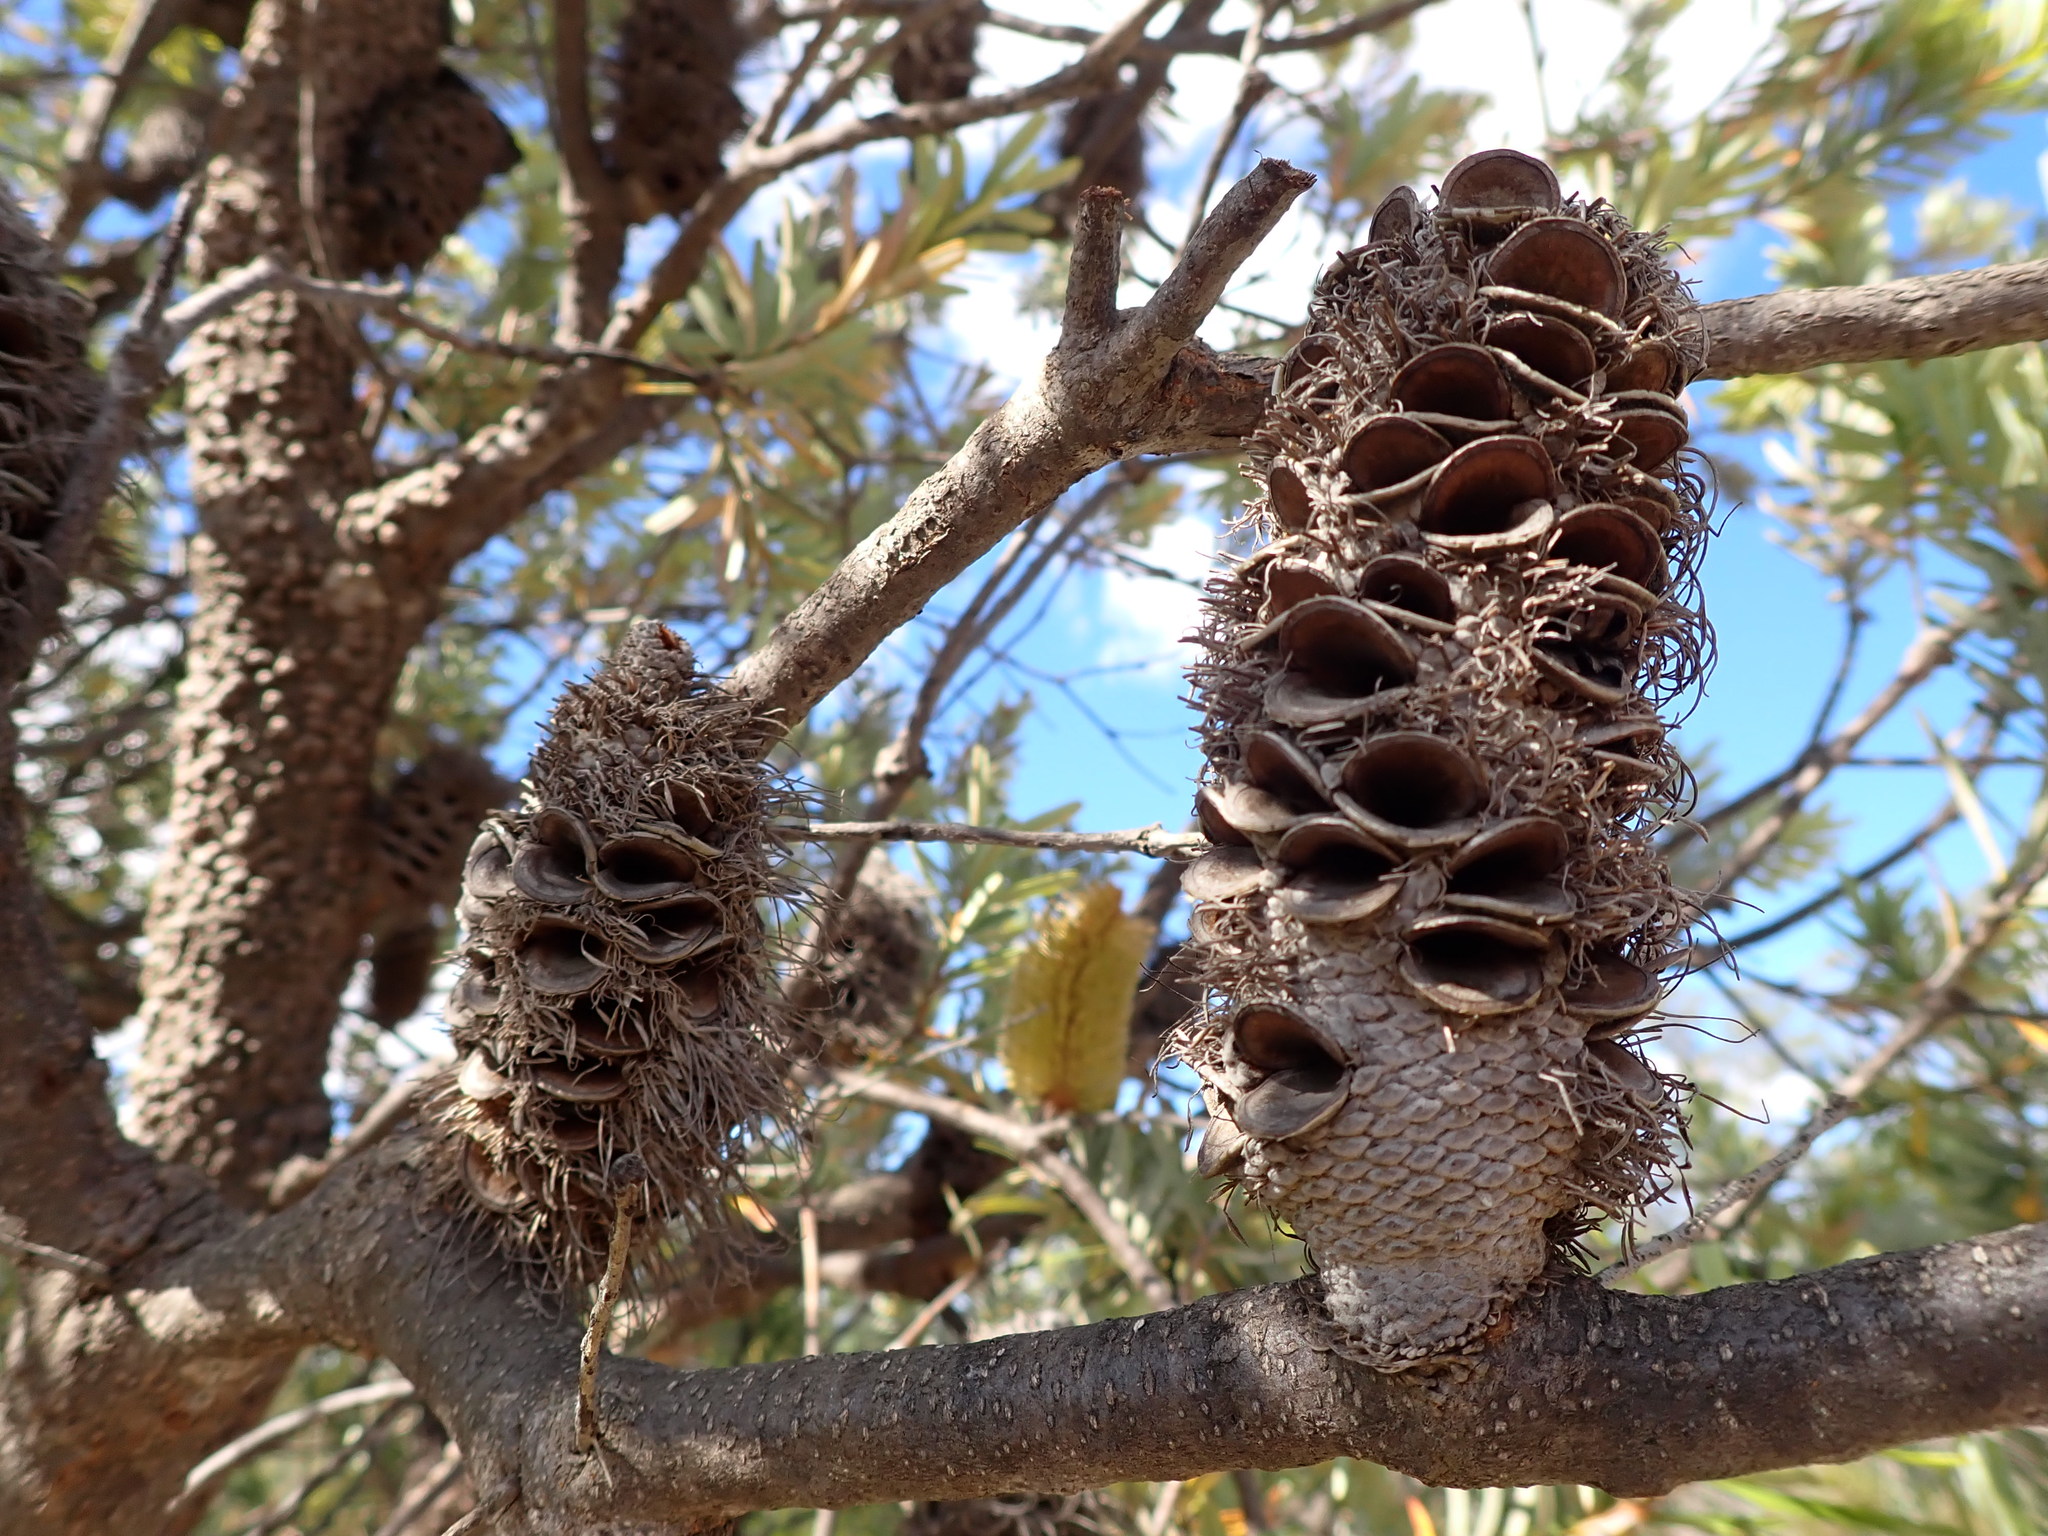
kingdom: Plantae
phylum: Tracheophyta
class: Magnoliopsida
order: Proteales
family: Proteaceae
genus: Banksia
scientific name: Banksia marginata
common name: Silver banksia
